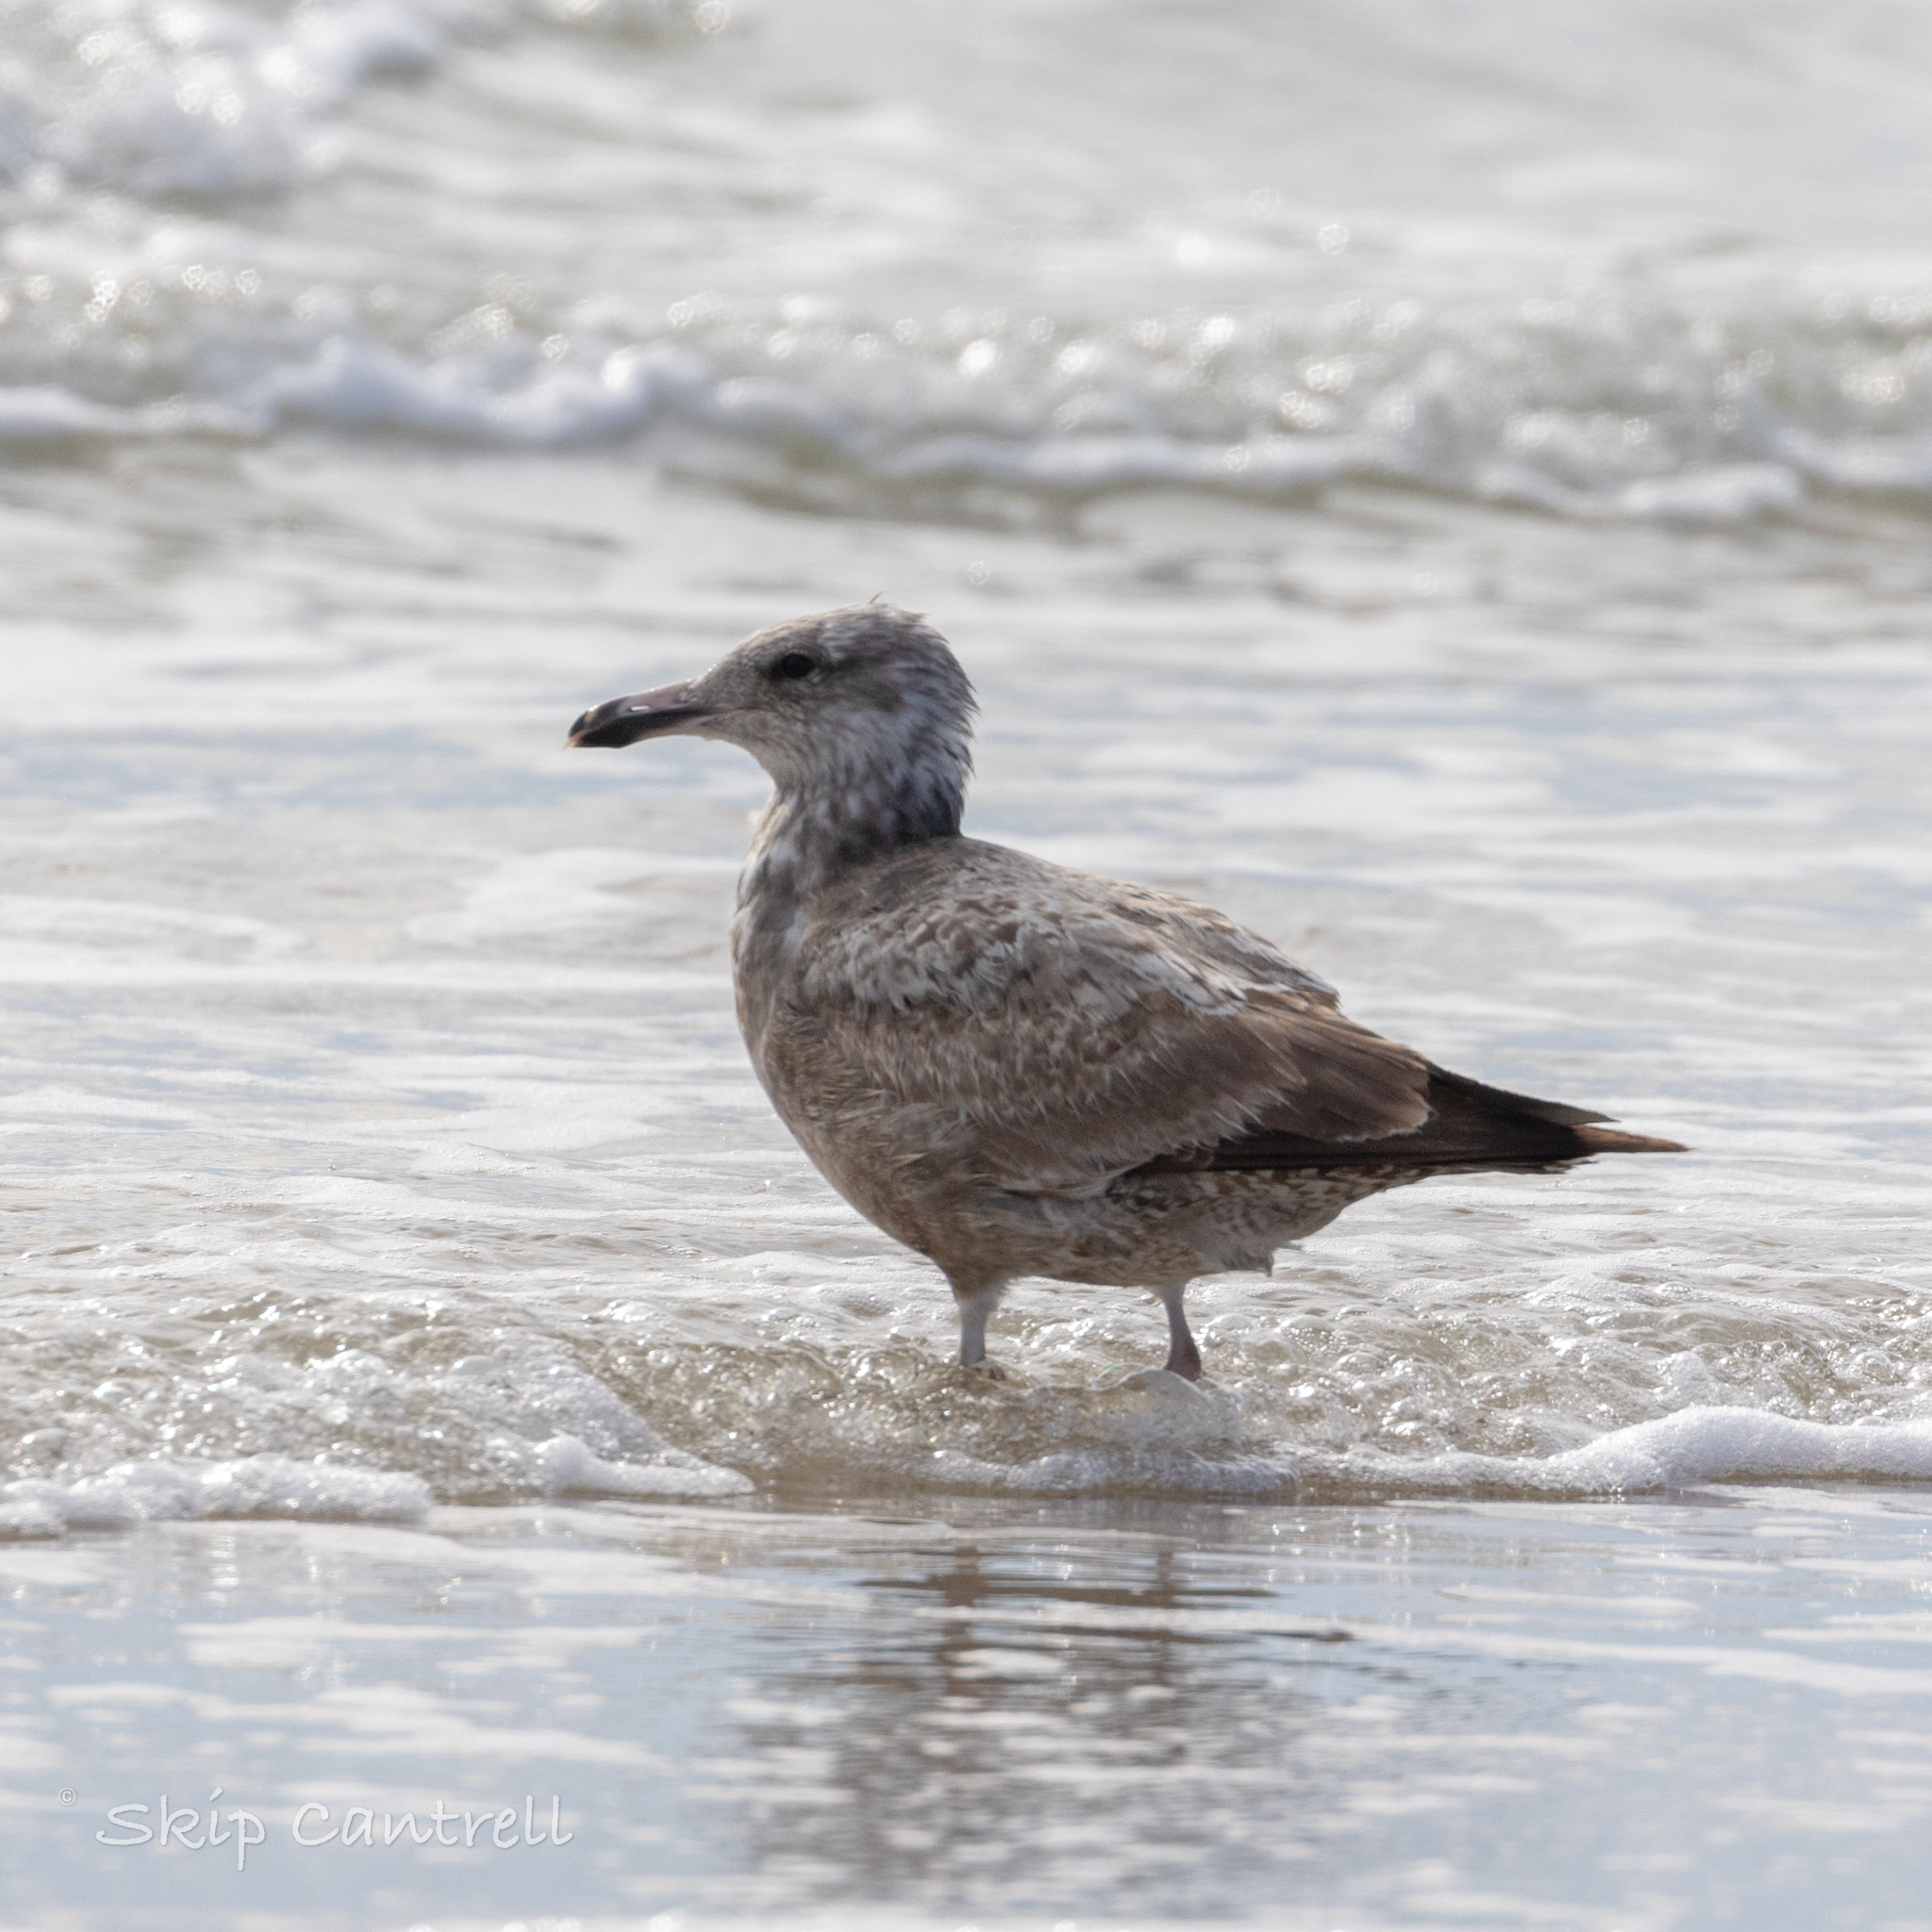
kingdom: Animalia
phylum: Chordata
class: Aves
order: Charadriiformes
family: Laridae
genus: Larus
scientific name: Larus argentatus
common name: Herring gull
